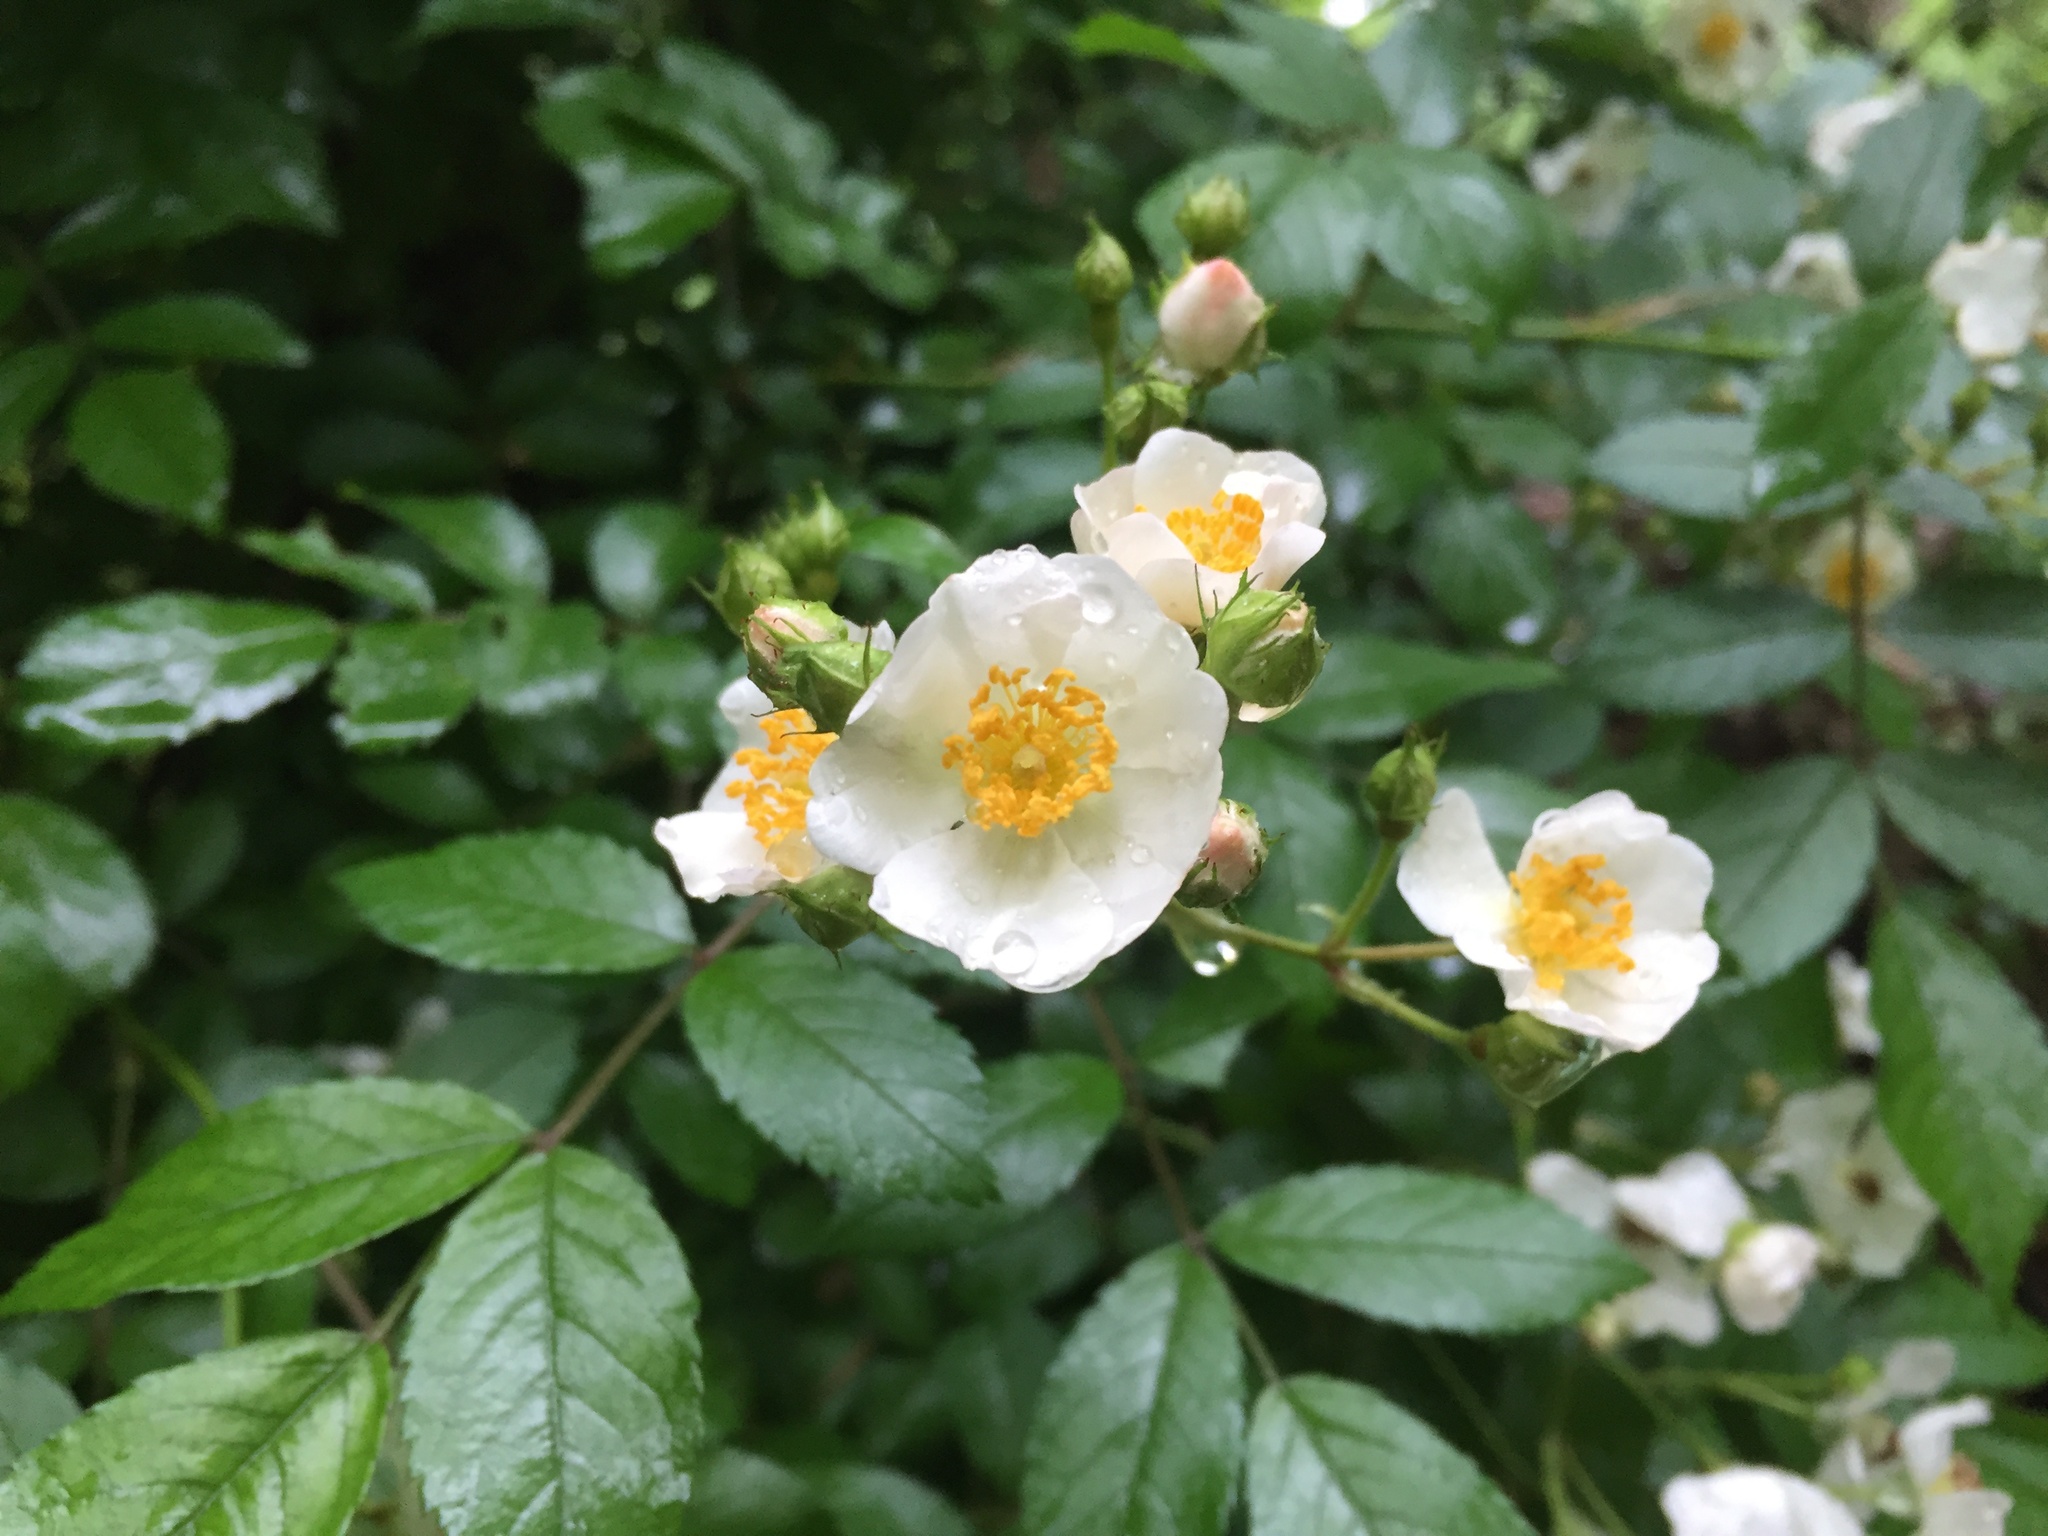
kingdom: Plantae
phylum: Tracheophyta
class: Magnoliopsida
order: Rosales
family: Rosaceae
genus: Rosa
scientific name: Rosa multiflora
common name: Multiflora rose
